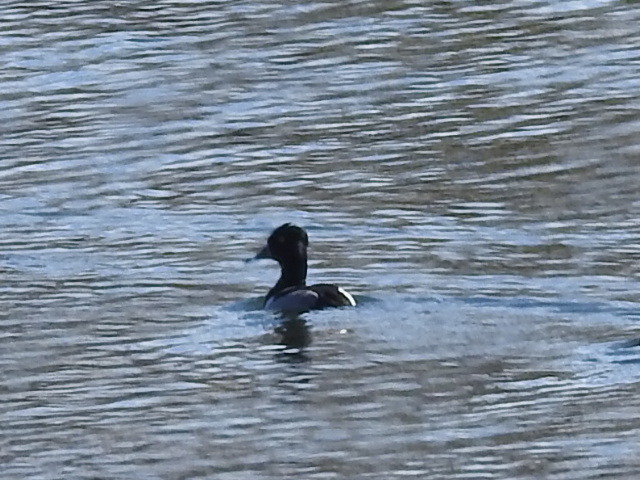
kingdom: Animalia
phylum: Chordata
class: Aves
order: Anseriformes
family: Anatidae
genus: Aythya
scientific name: Aythya collaris
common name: Ring-necked duck
